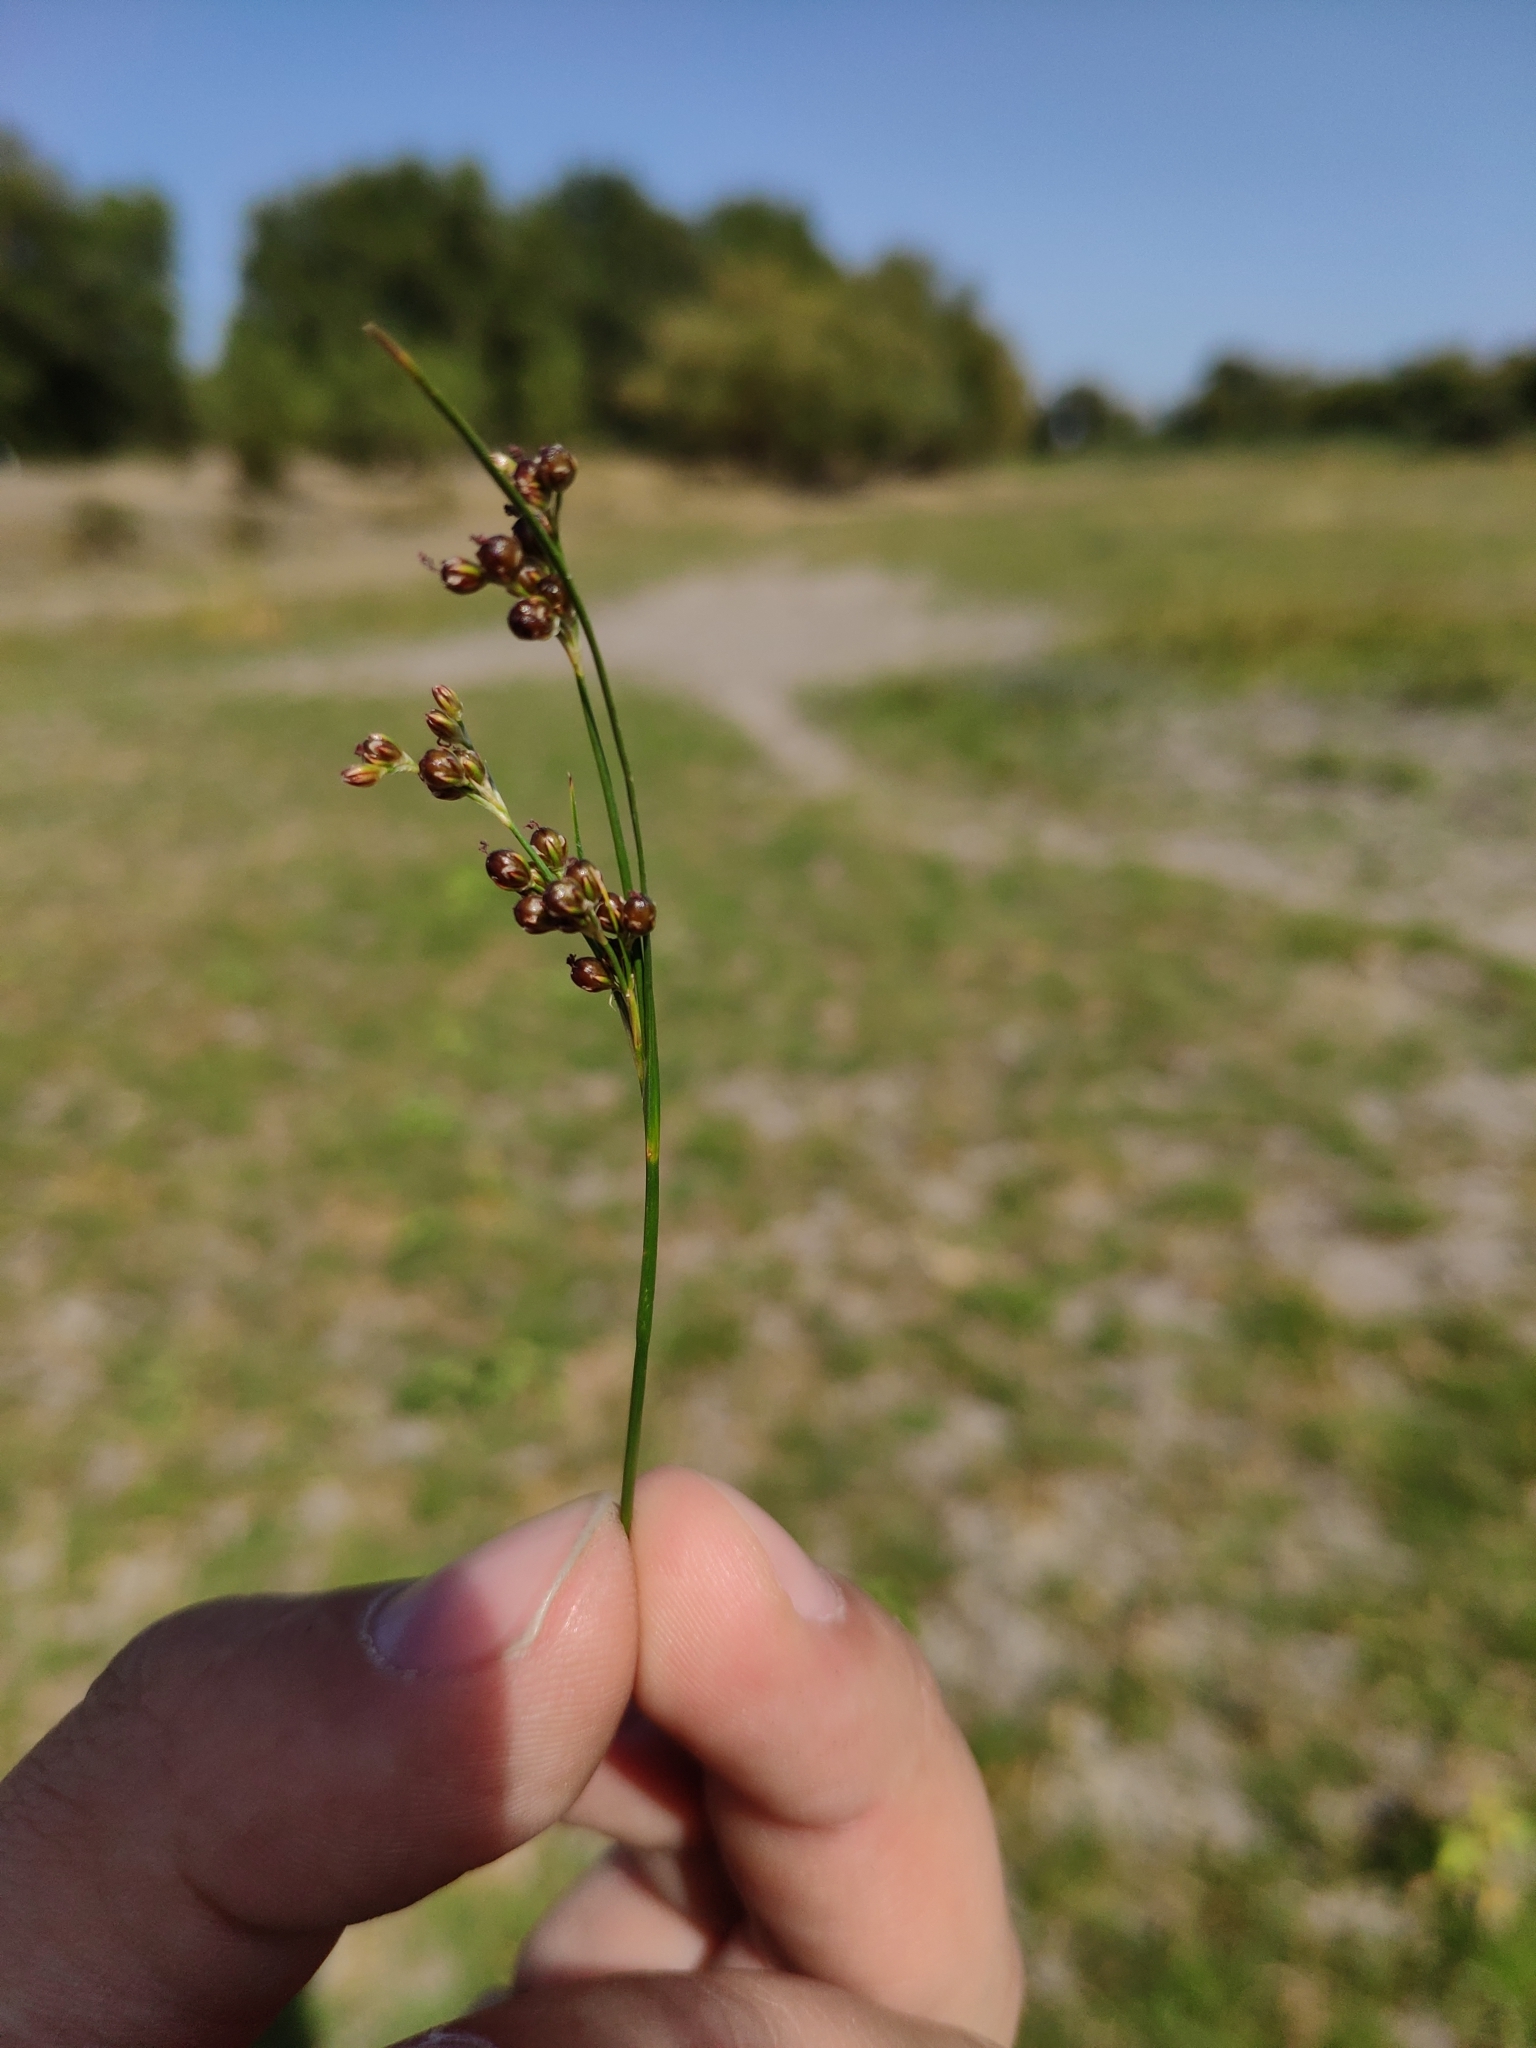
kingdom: Plantae
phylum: Tracheophyta
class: Liliopsida
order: Poales
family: Juncaceae
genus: Juncus
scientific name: Juncus compressus
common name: Round-fruited rush
